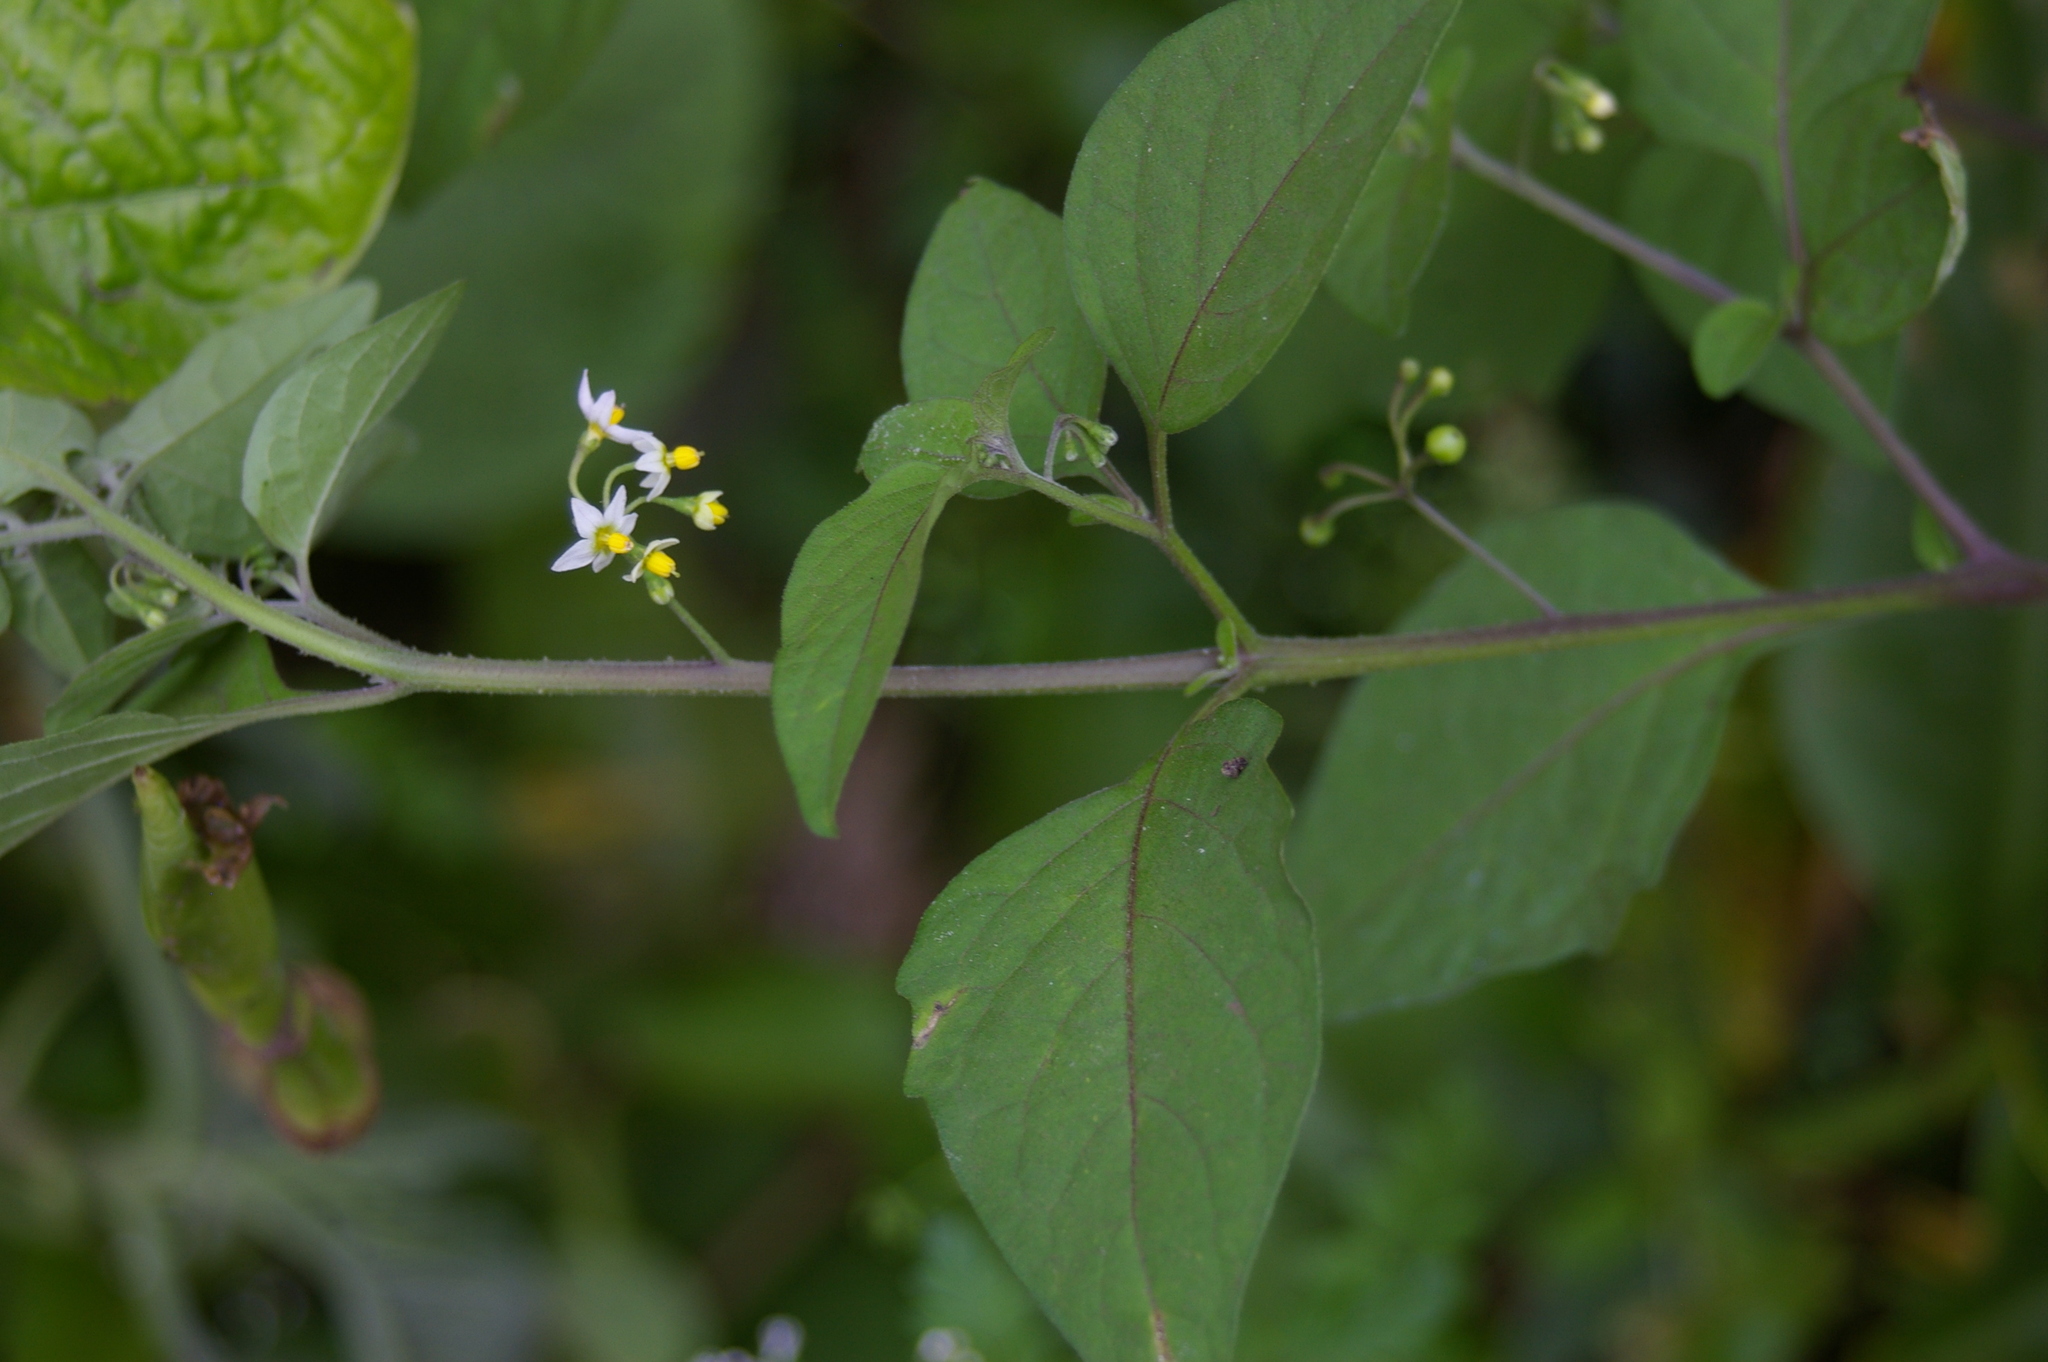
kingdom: Plantae
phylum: Tracheophyta
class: Magnoliopsida
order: Solanales
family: Solanaceae
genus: Solanum
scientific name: Solanum americanum
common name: American black nightshade
